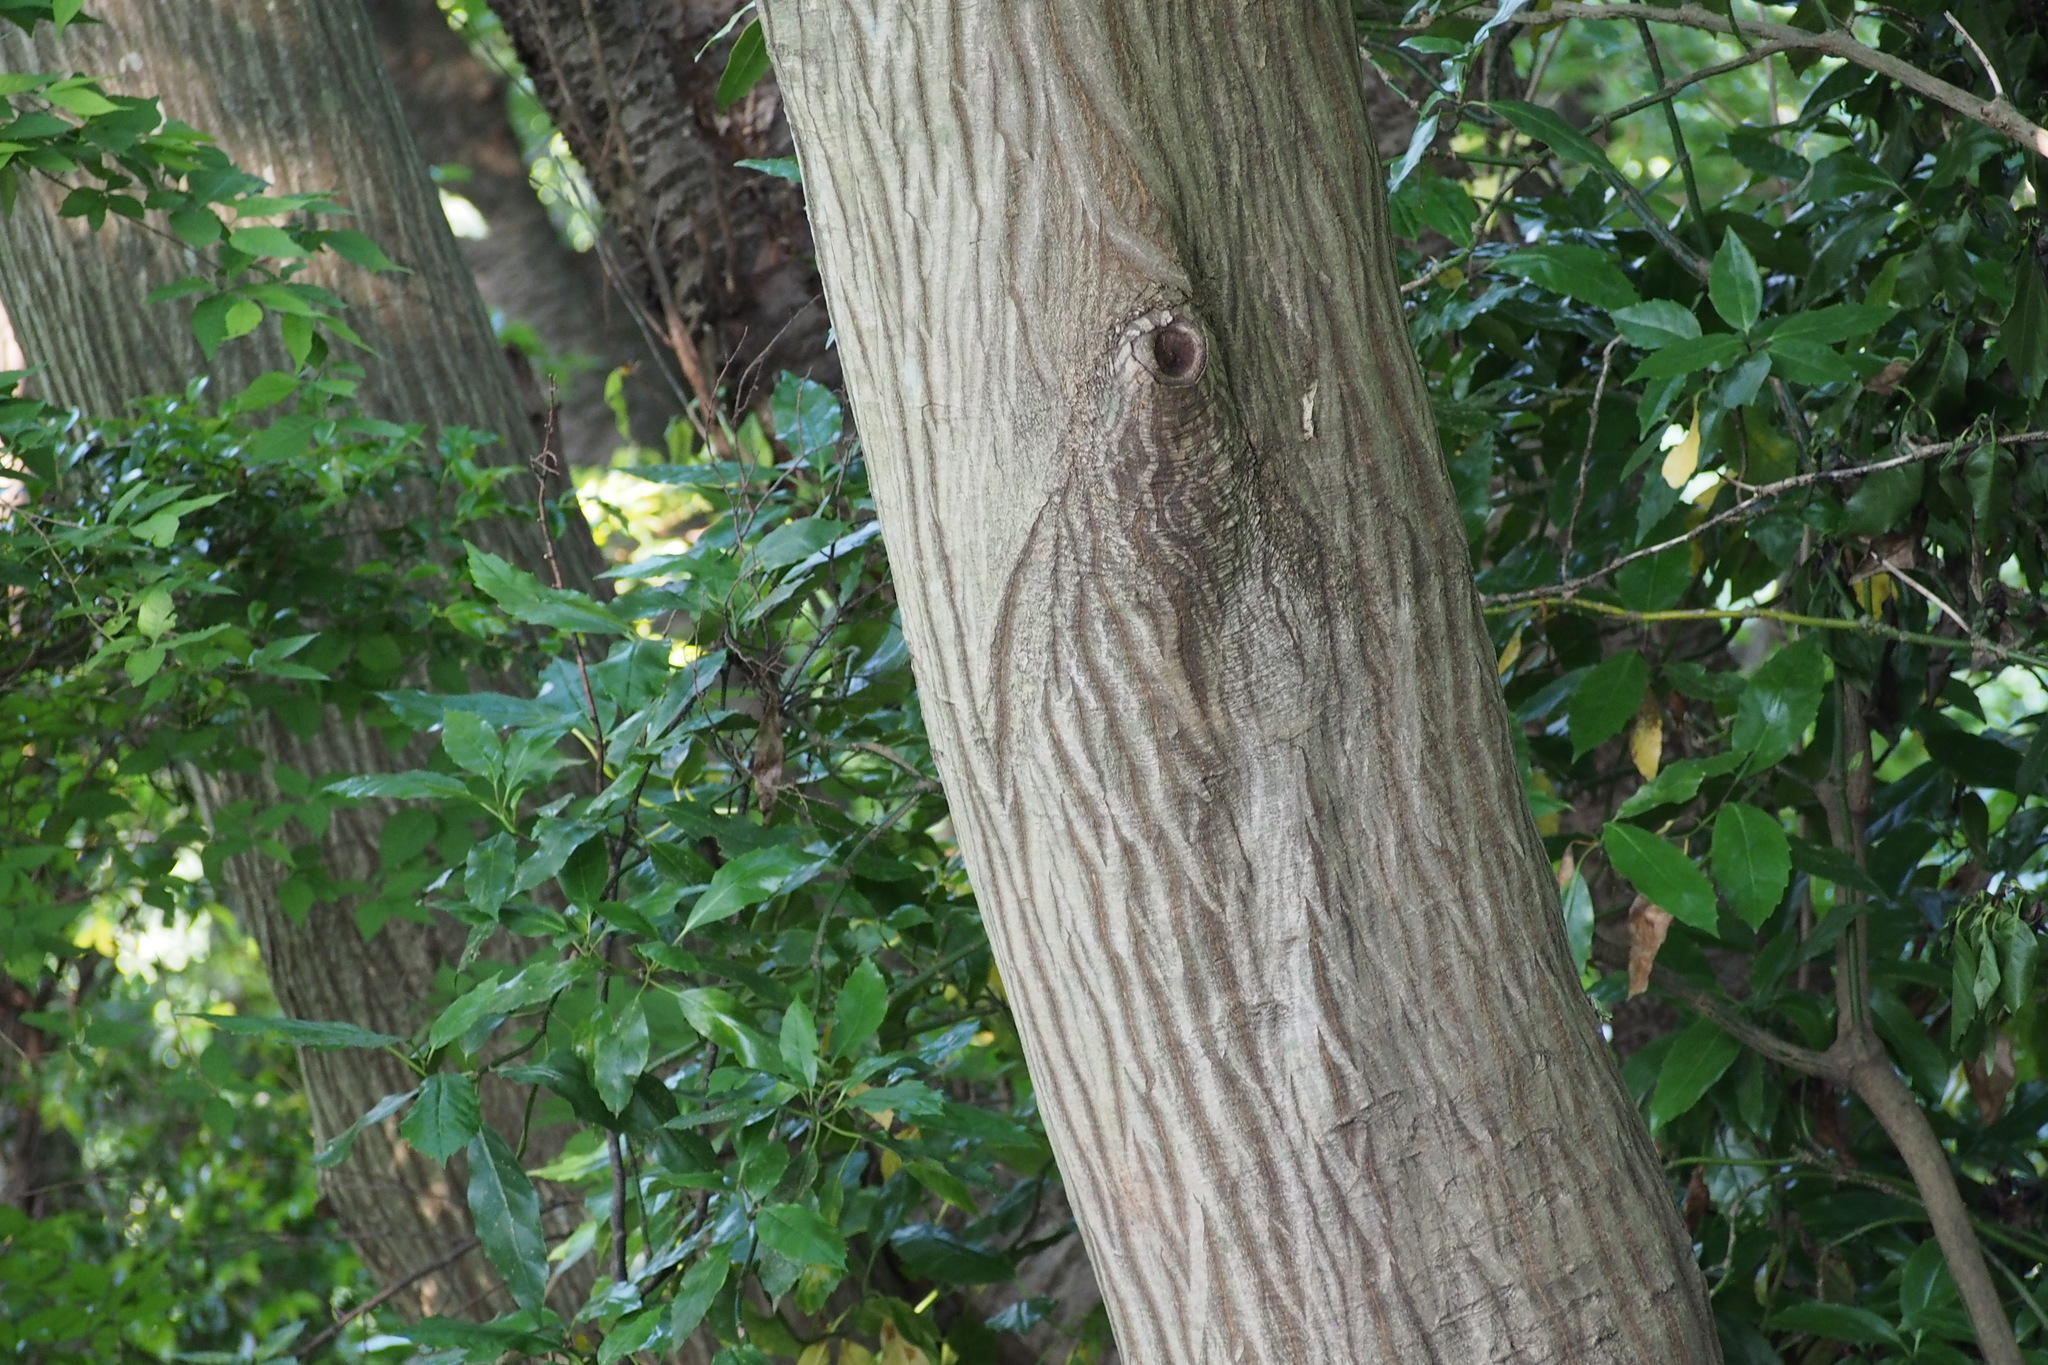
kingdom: Plantae
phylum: Tracheophyta
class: Magnoliopsida
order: Fagales
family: Betulaceae
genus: Carpinus
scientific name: Carpinus tschonoskii
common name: Asian hornbeam
